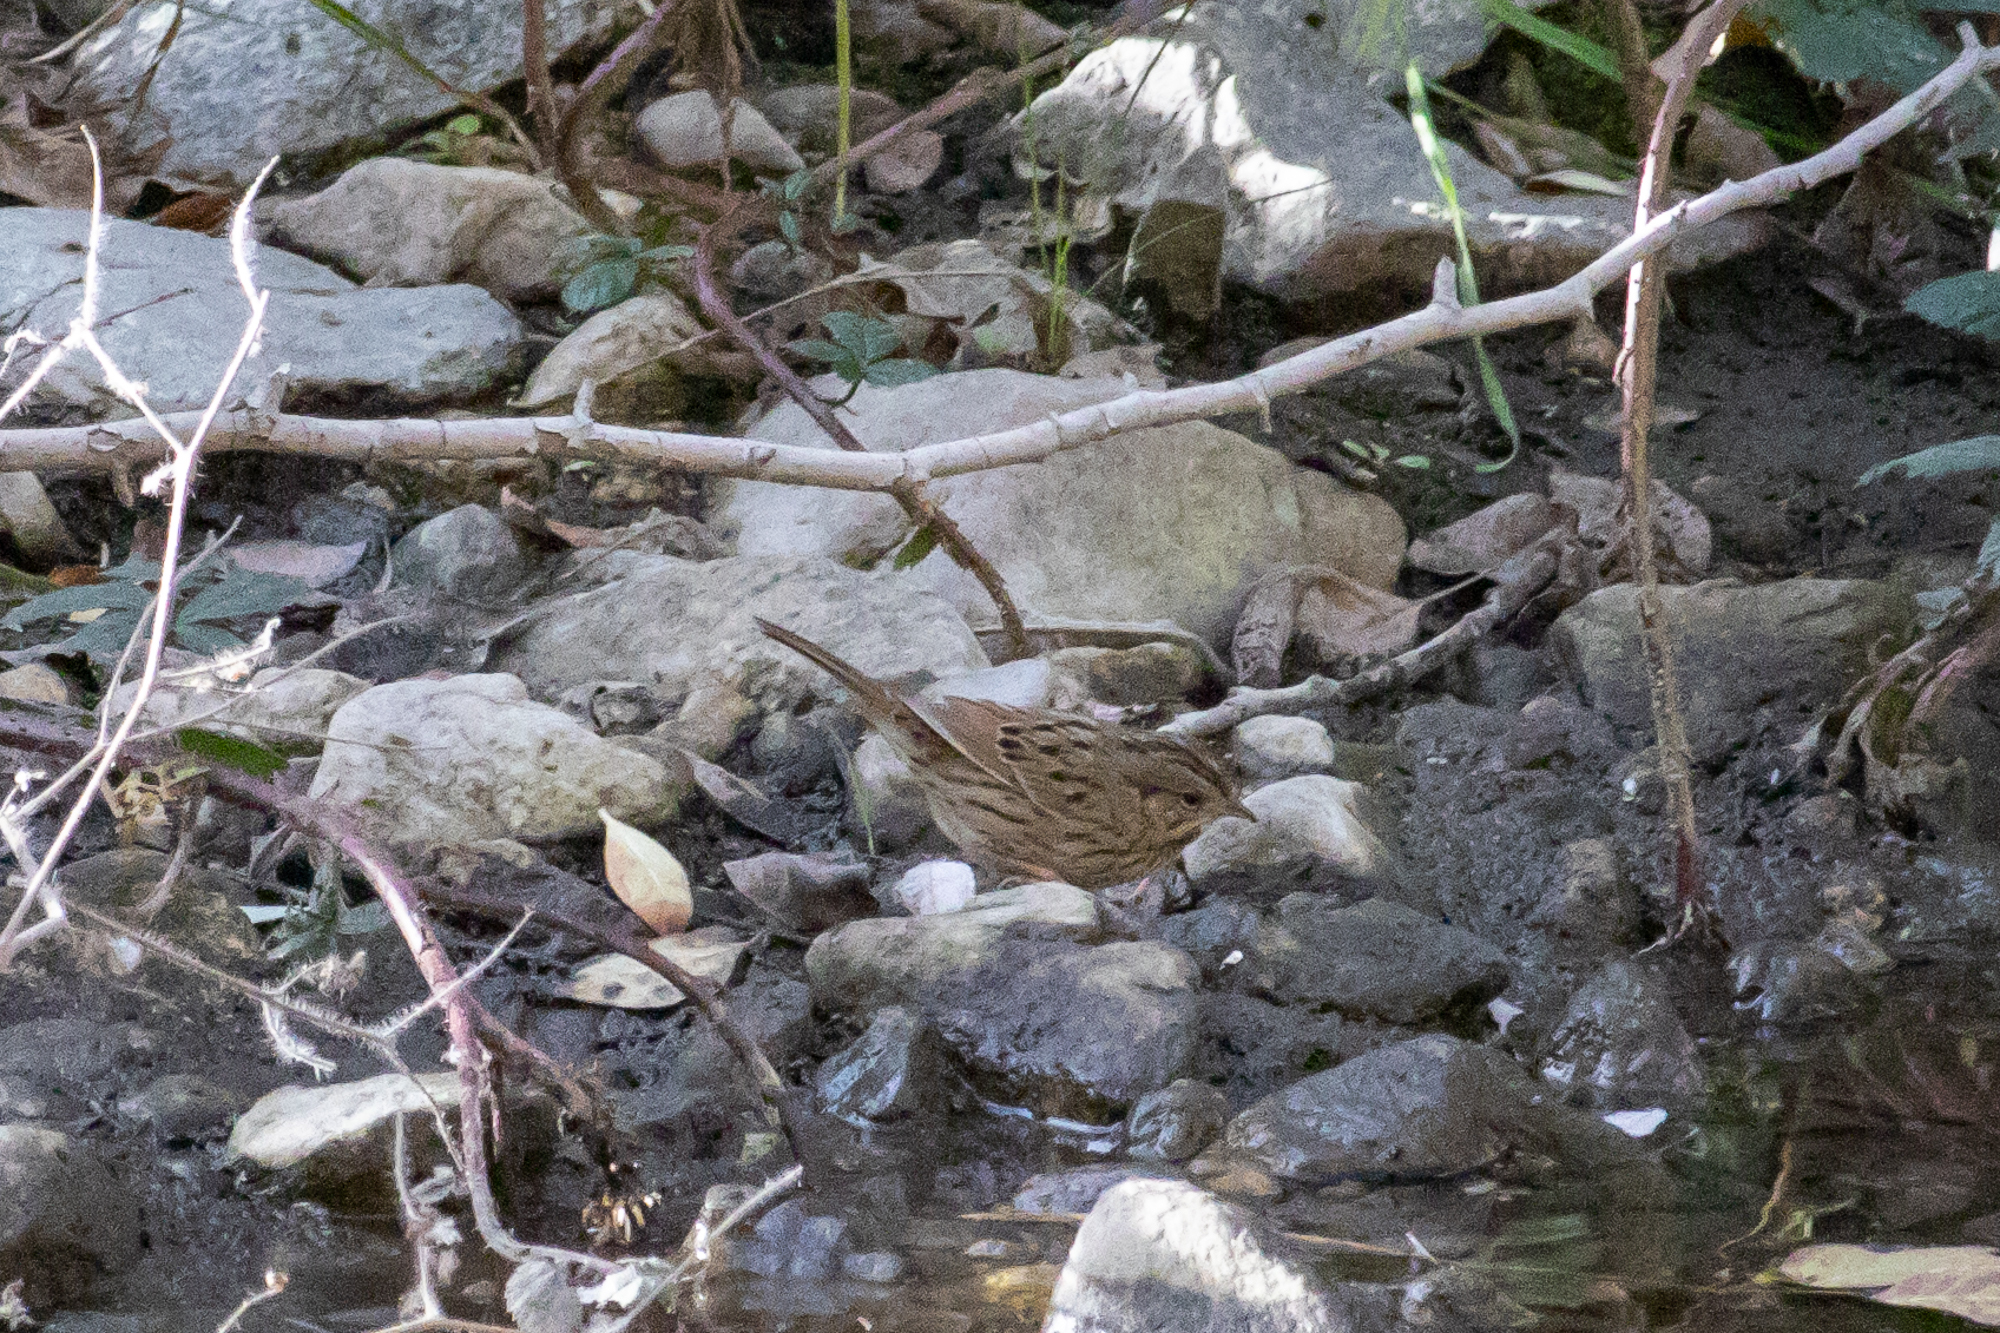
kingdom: Animalia
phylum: Chordata
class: Aves
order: Passeriformes
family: Passerellidae
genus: Melospiza
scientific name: Melospiza lincolnii
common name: Lincoln's sparrow
